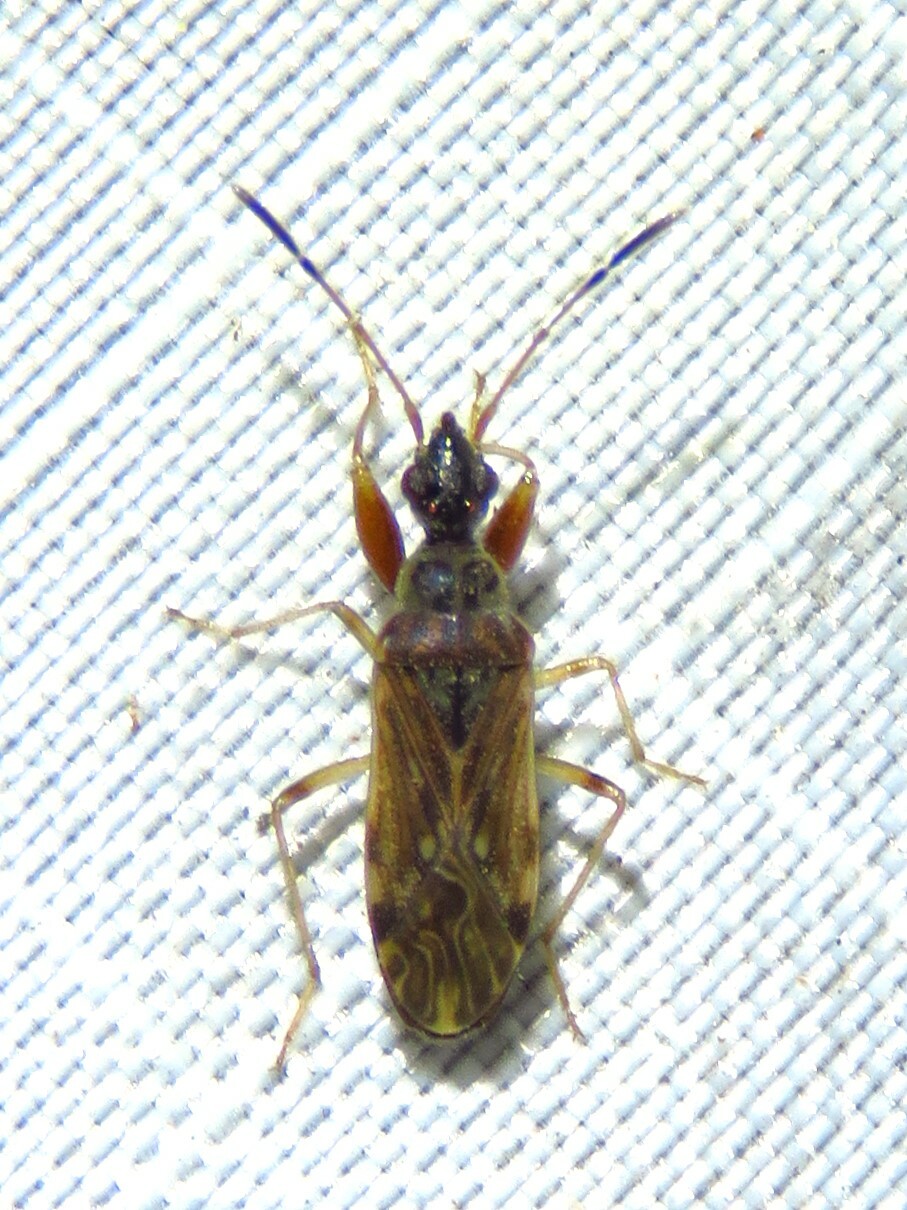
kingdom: Animalia
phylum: Arthropoda
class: Insecta
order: Hemiptera
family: Rhyparochromidae
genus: Heraeus
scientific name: Heraeus plebejus
